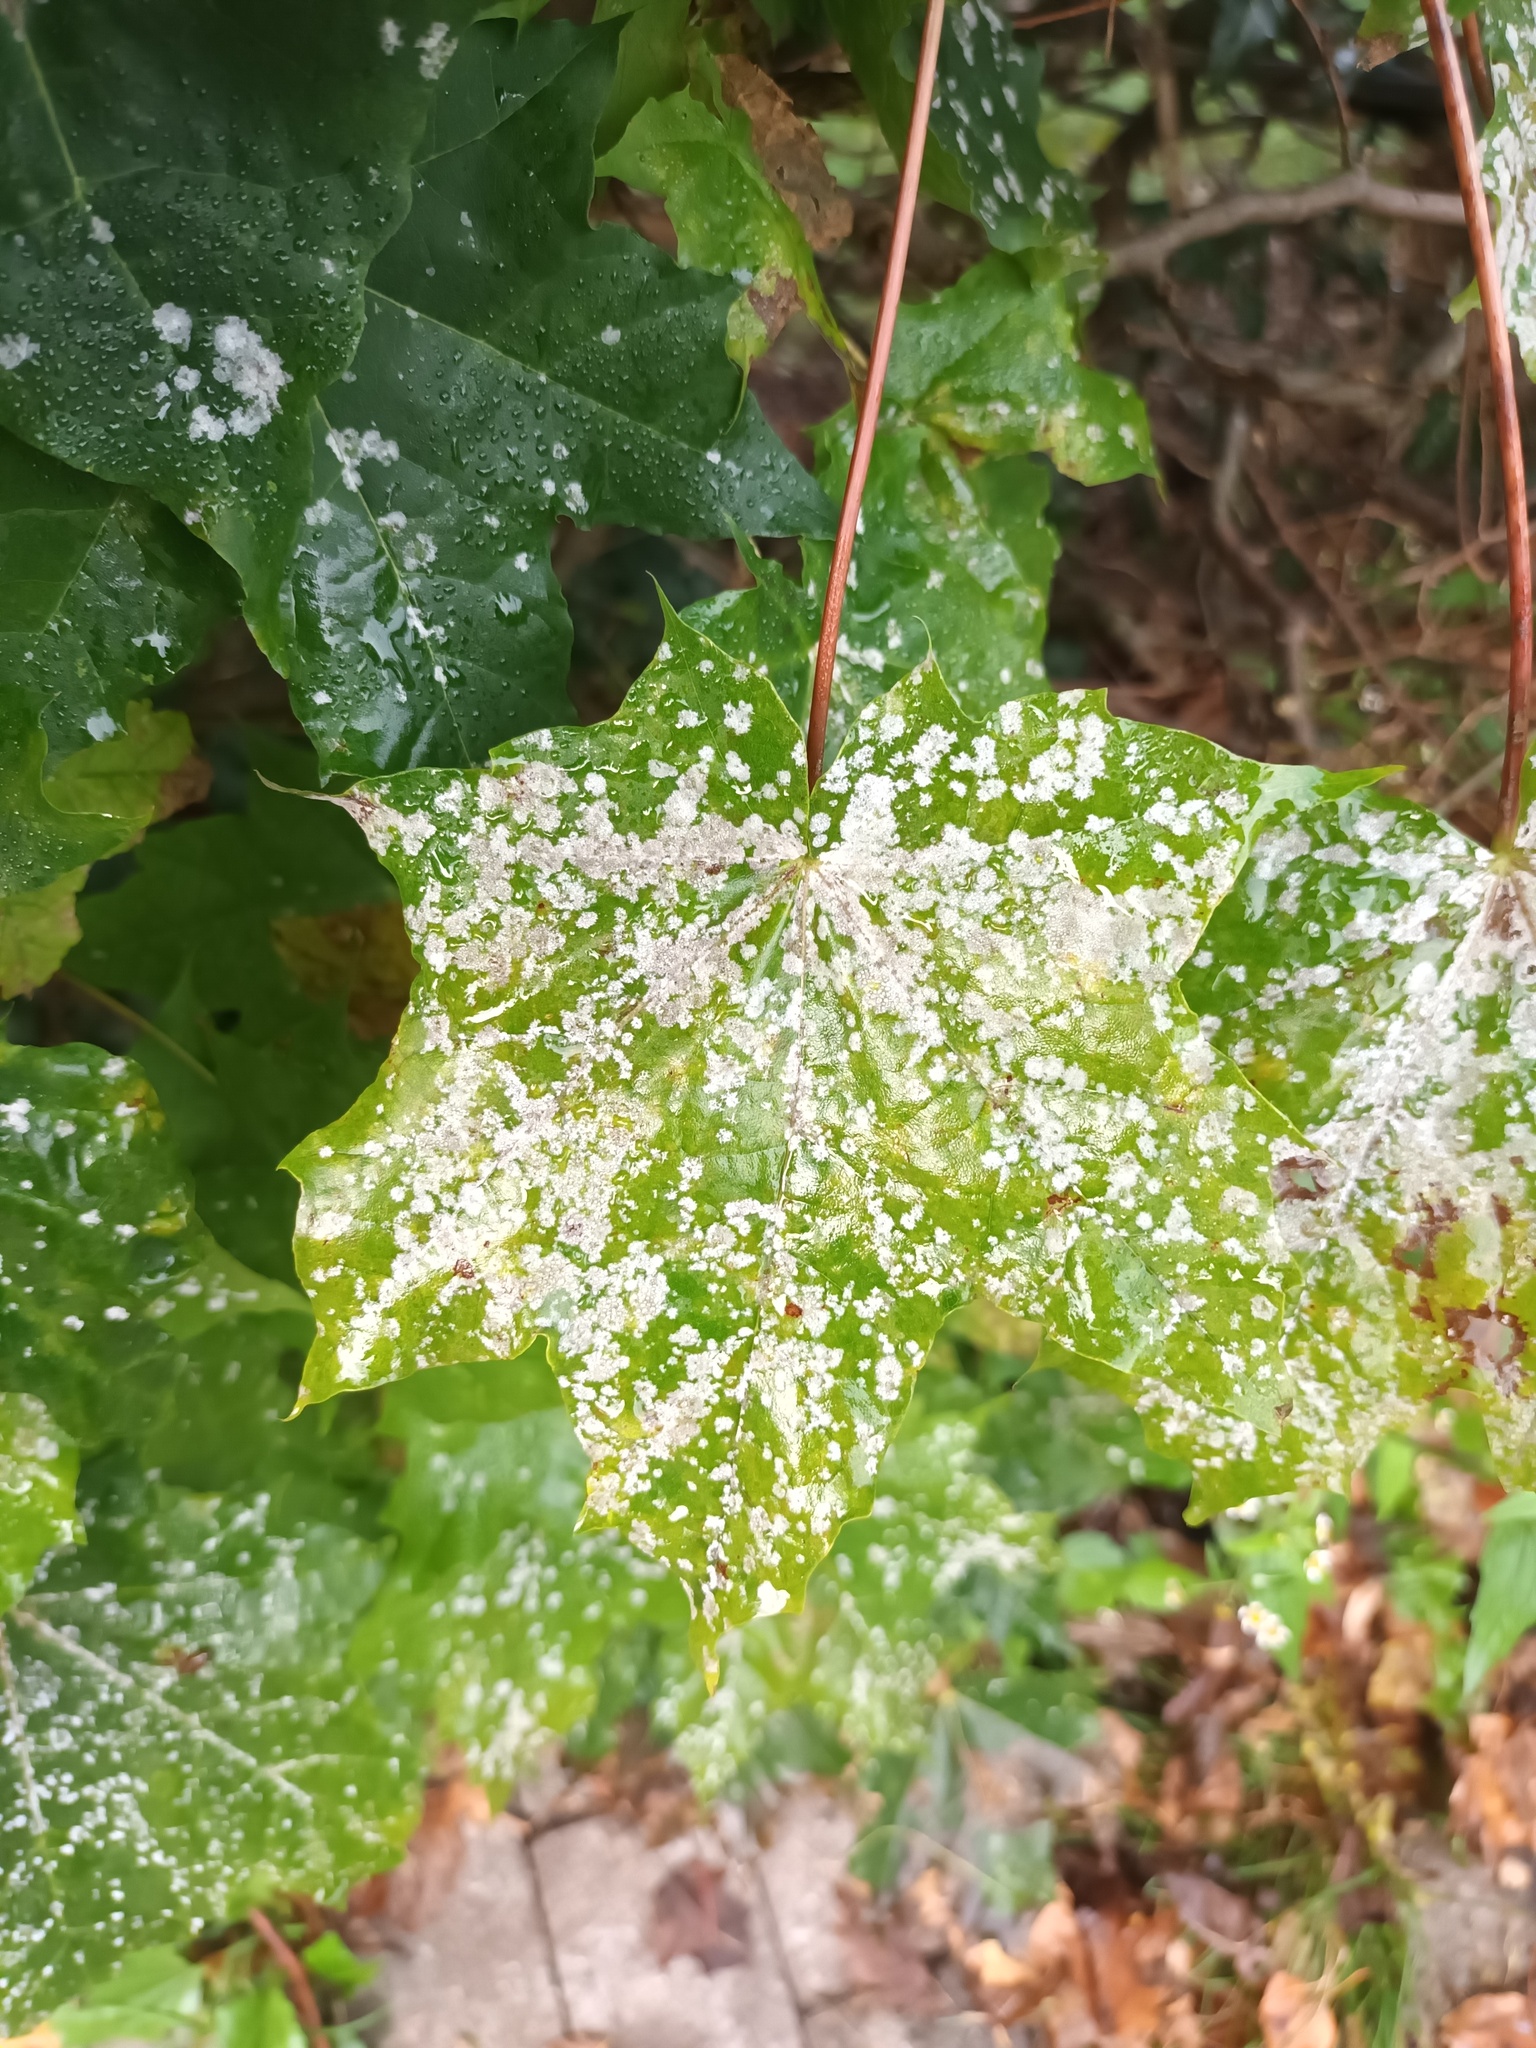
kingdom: Fungi
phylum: Ascomycota
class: Leotiomycetes
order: Helotiales
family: Erysiphaceae
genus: Sawadaea
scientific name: Sawadaea tulasnei
